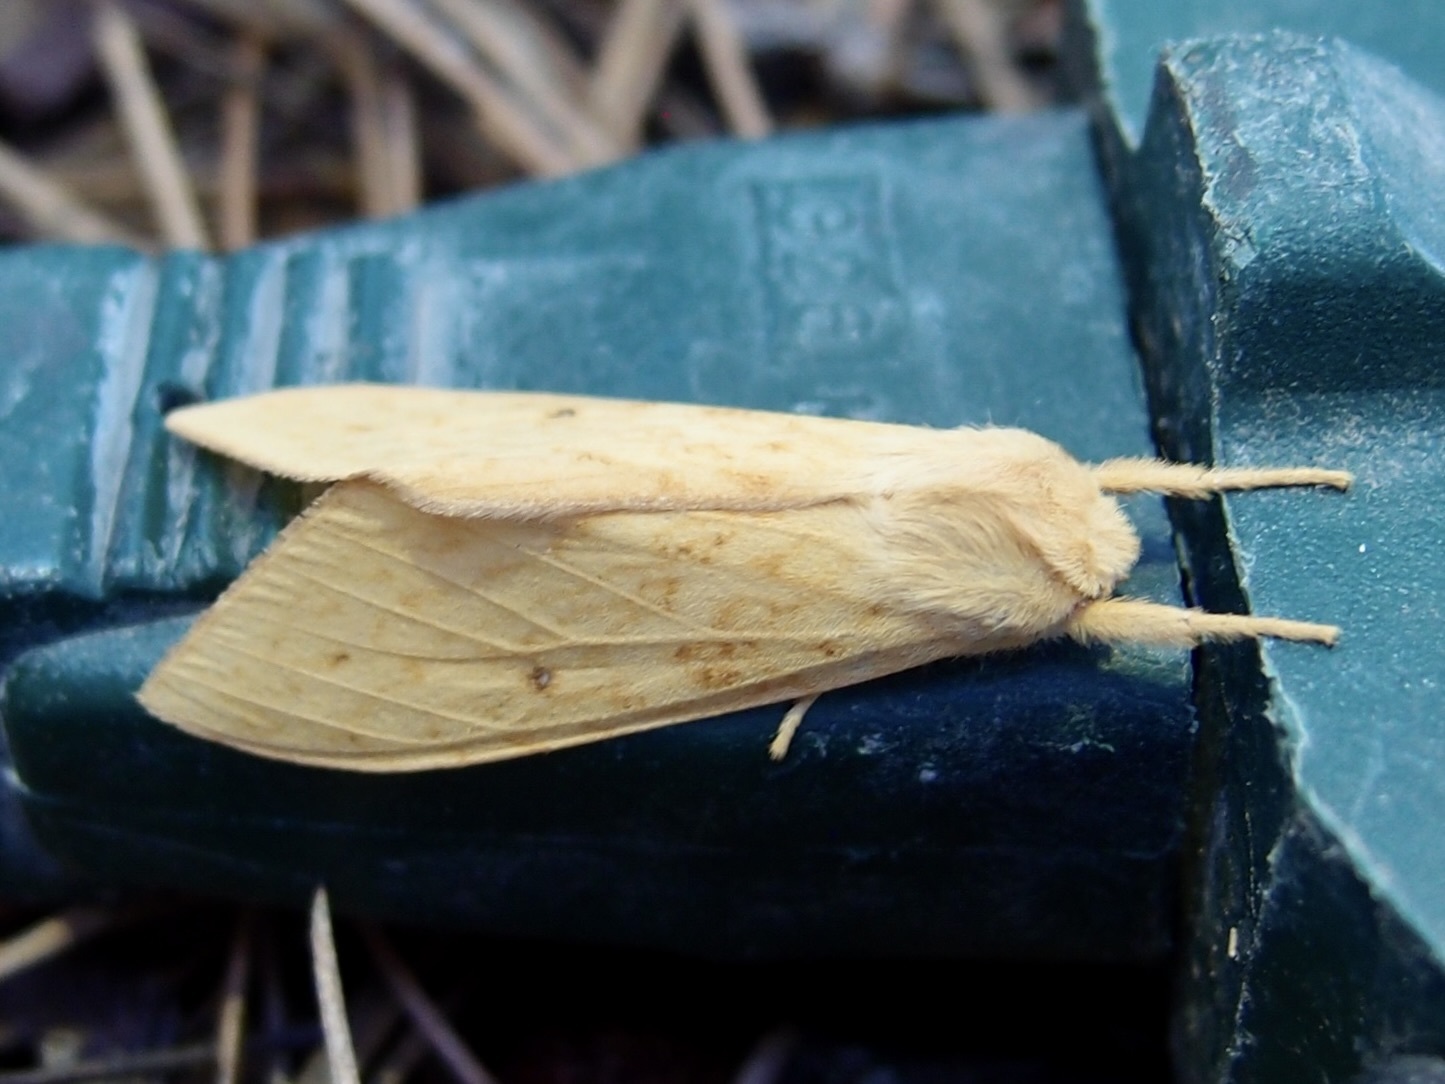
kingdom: Animalia
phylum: Arthropoda
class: Insecta
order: Lepidoptera
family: Erebidae
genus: Lophocampa
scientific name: Lophocampa pura
